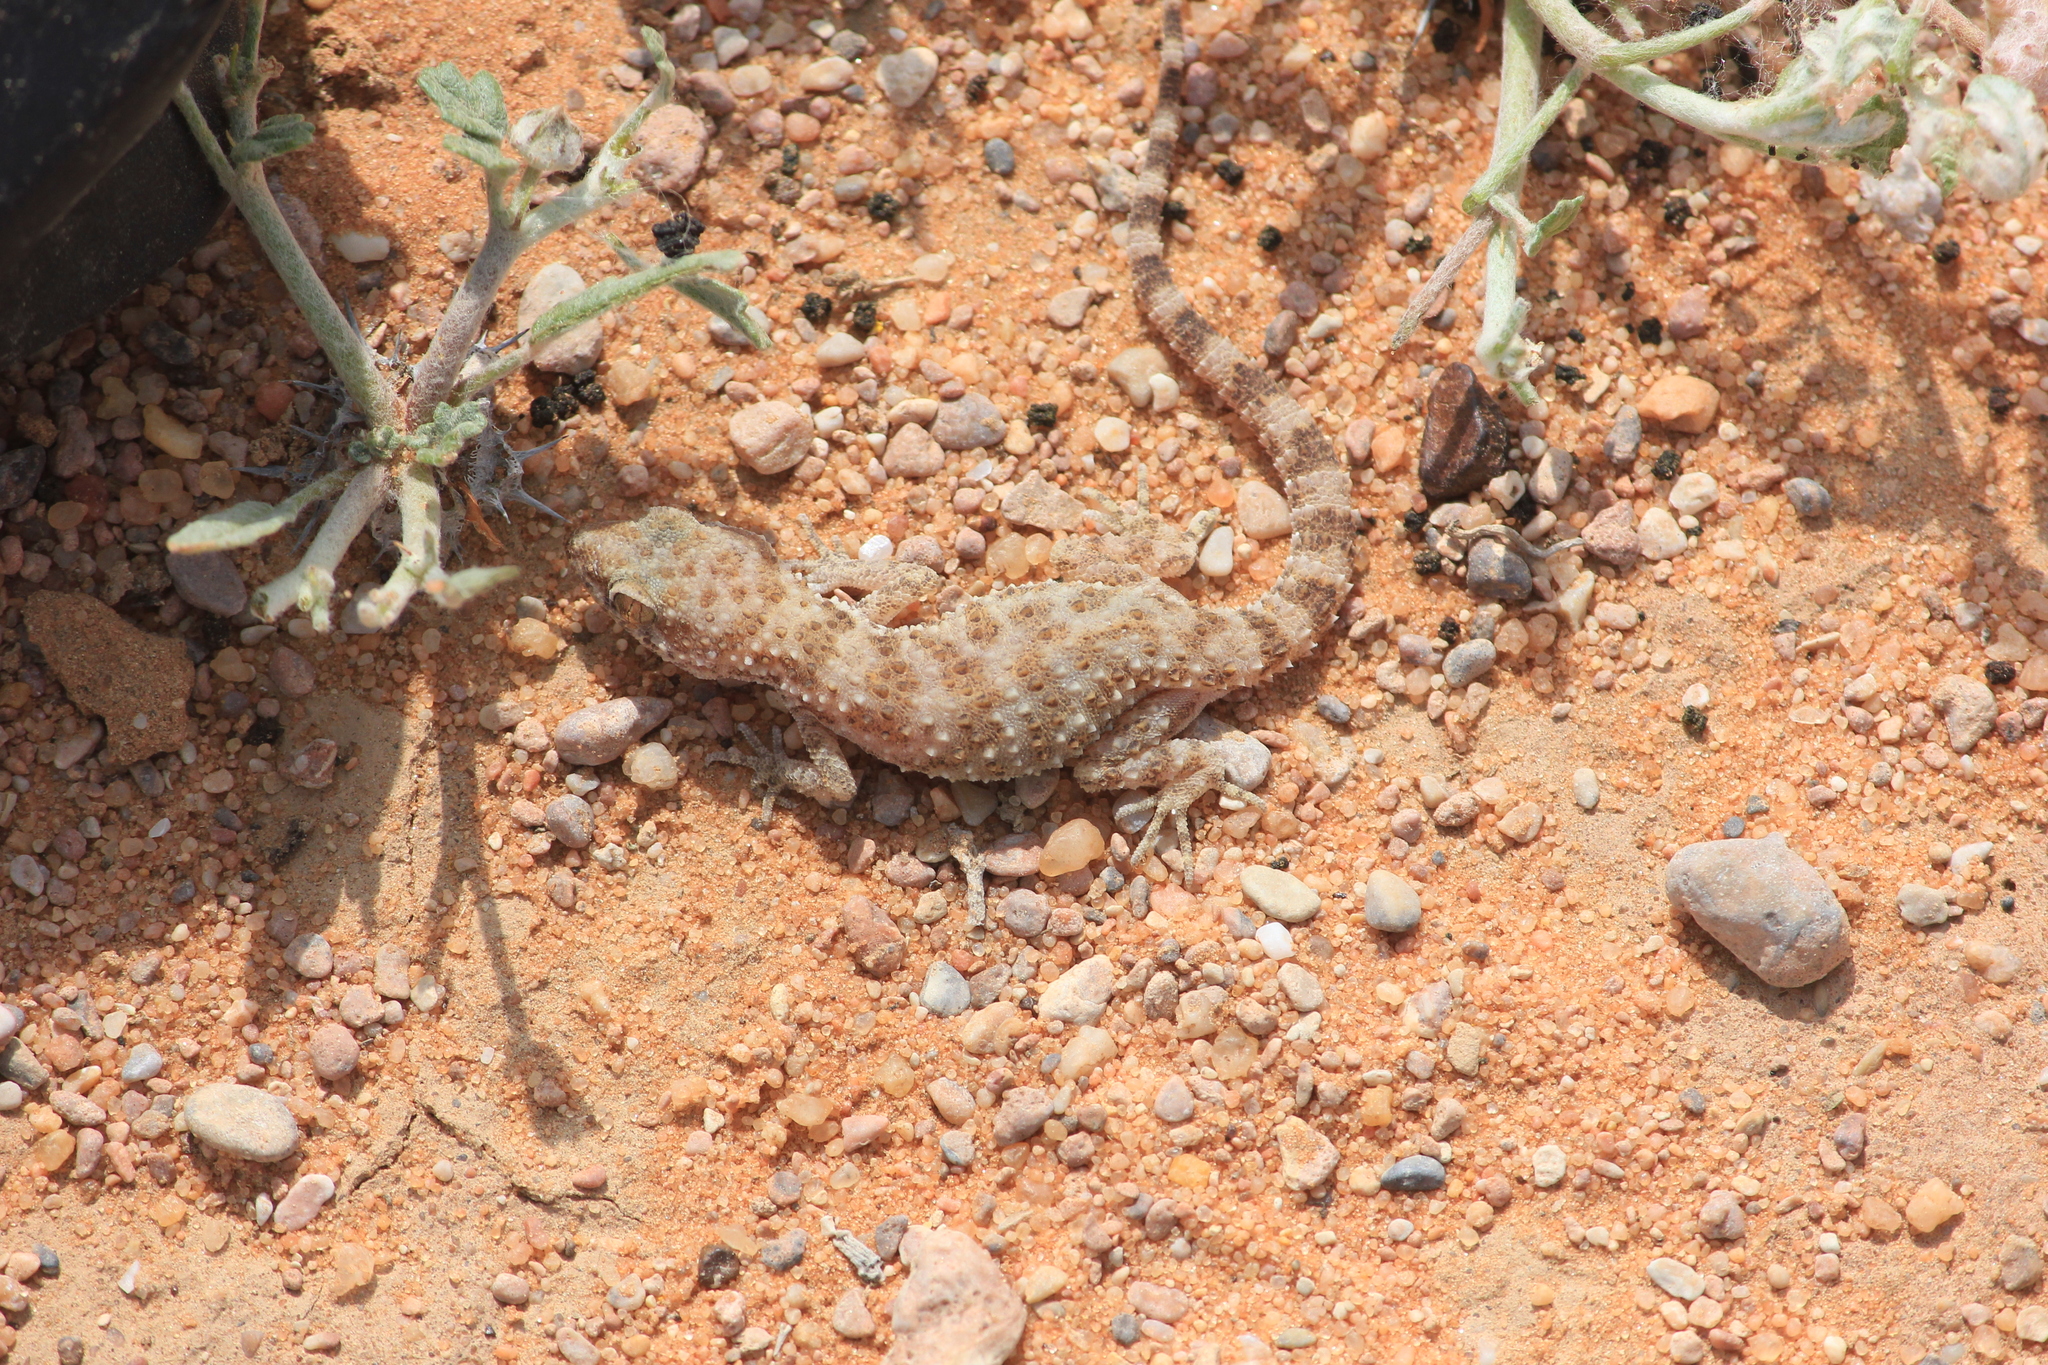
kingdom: Animalia
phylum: Chordata
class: Squamata
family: Gekkonidae
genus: Bunopus
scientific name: Bunopus tuberculatus
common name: Southern tuberculated gecko
